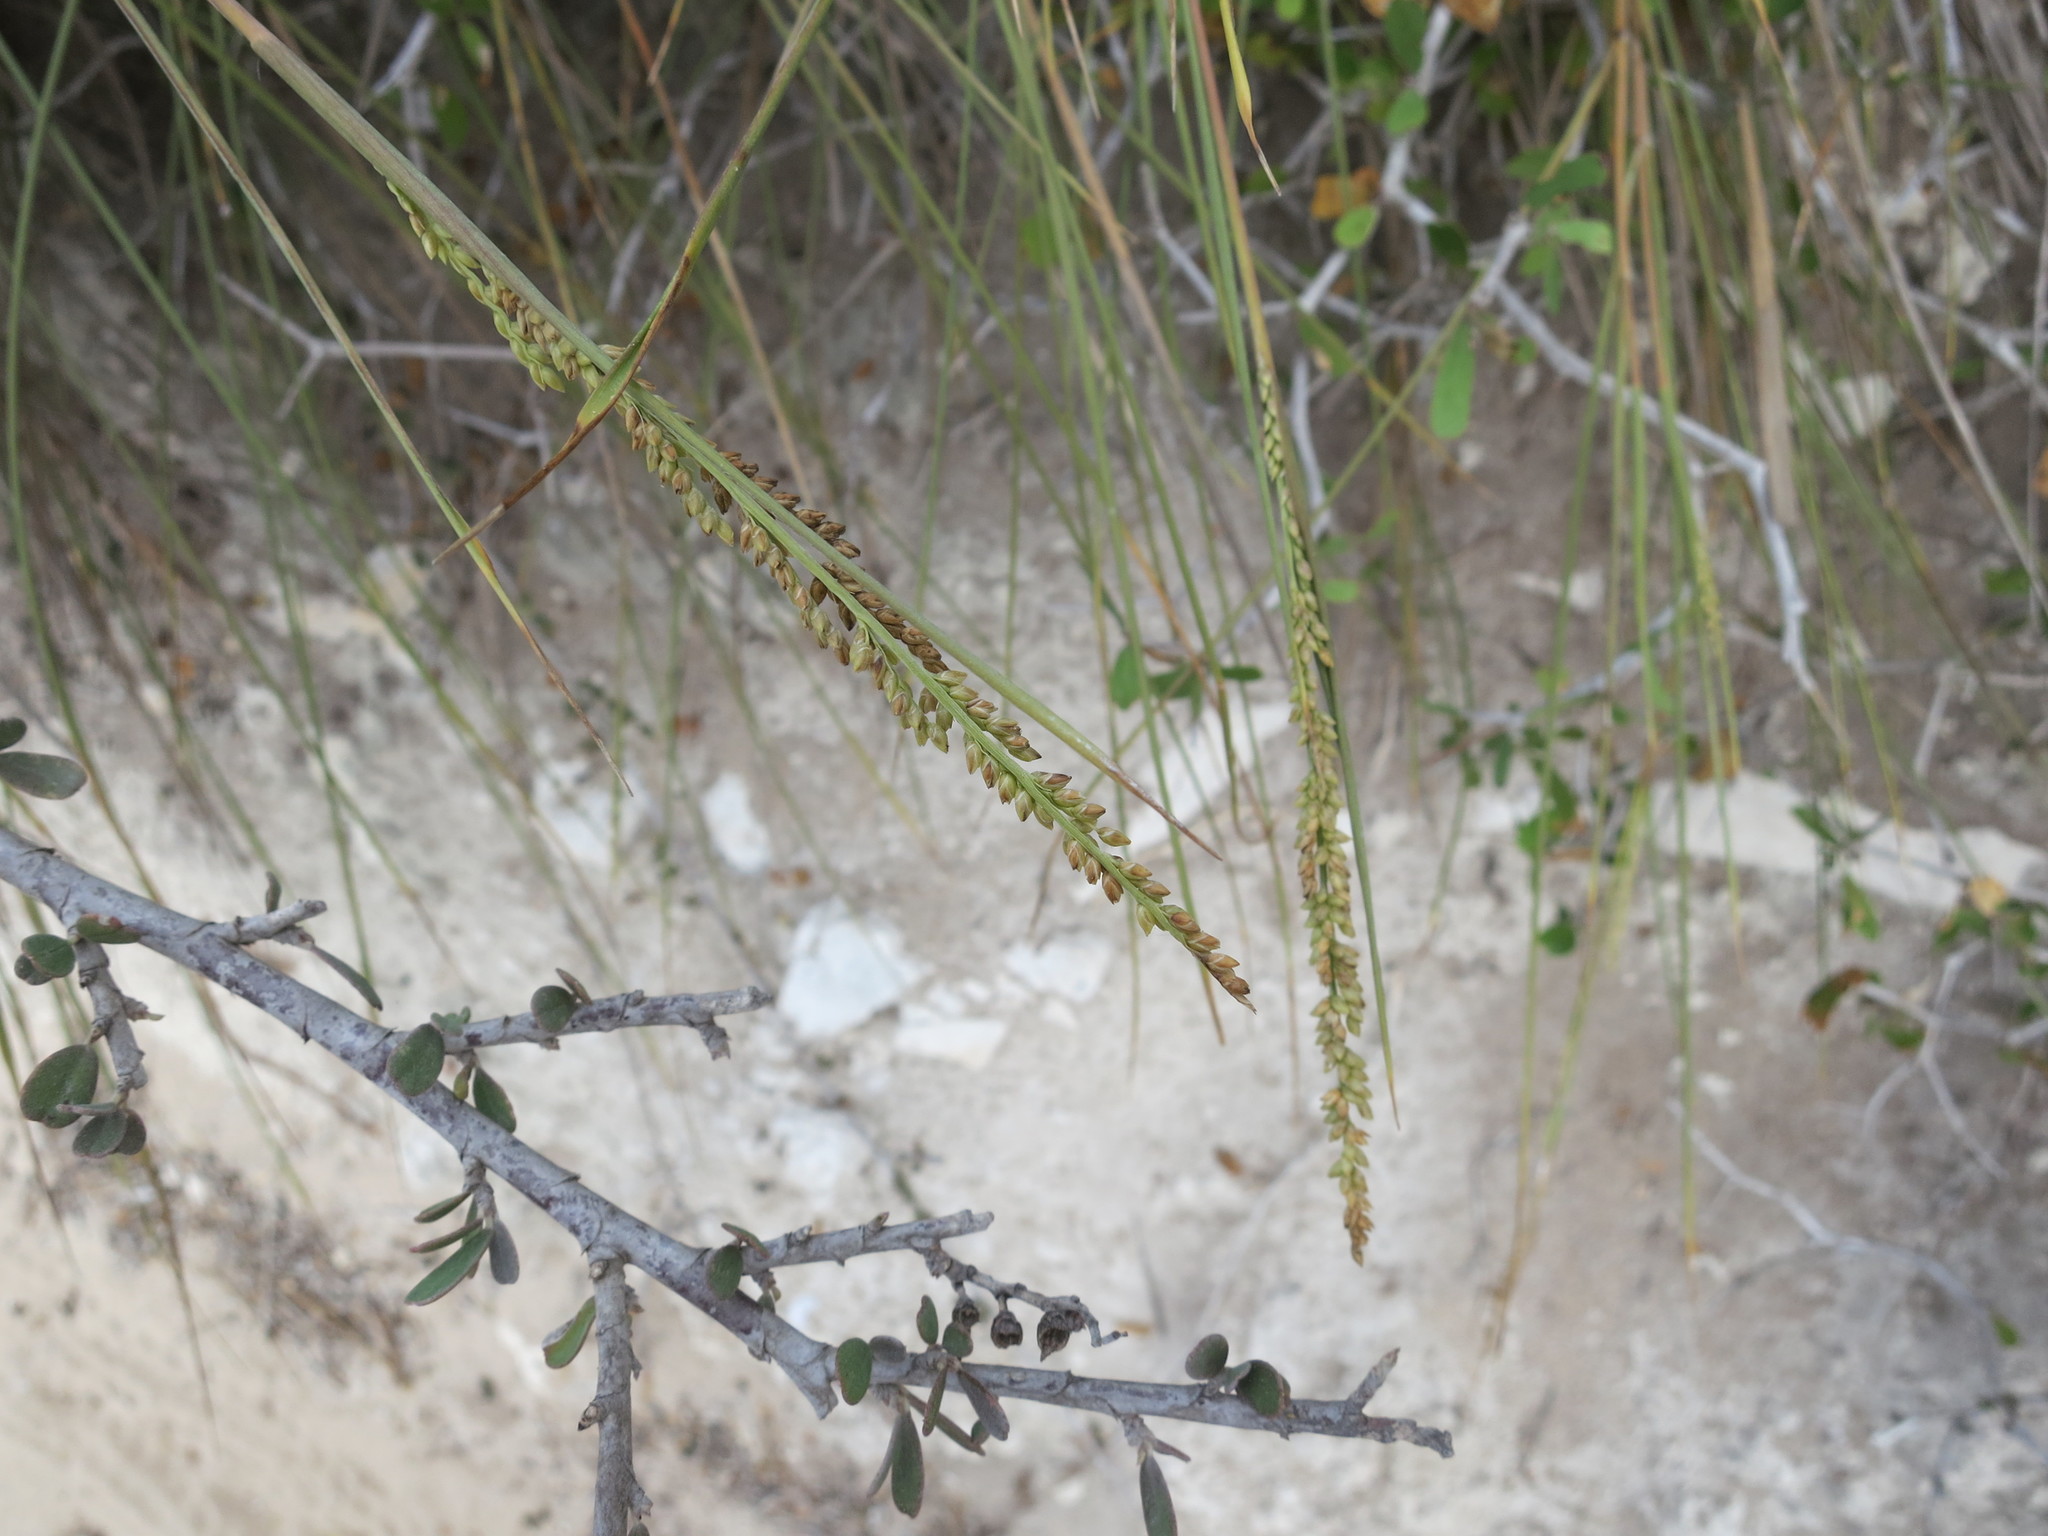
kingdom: Plantae
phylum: Tracheophyta
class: Liliopsida
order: Poales
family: Poaceae
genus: Setaria
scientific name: Setaria humbertiana
